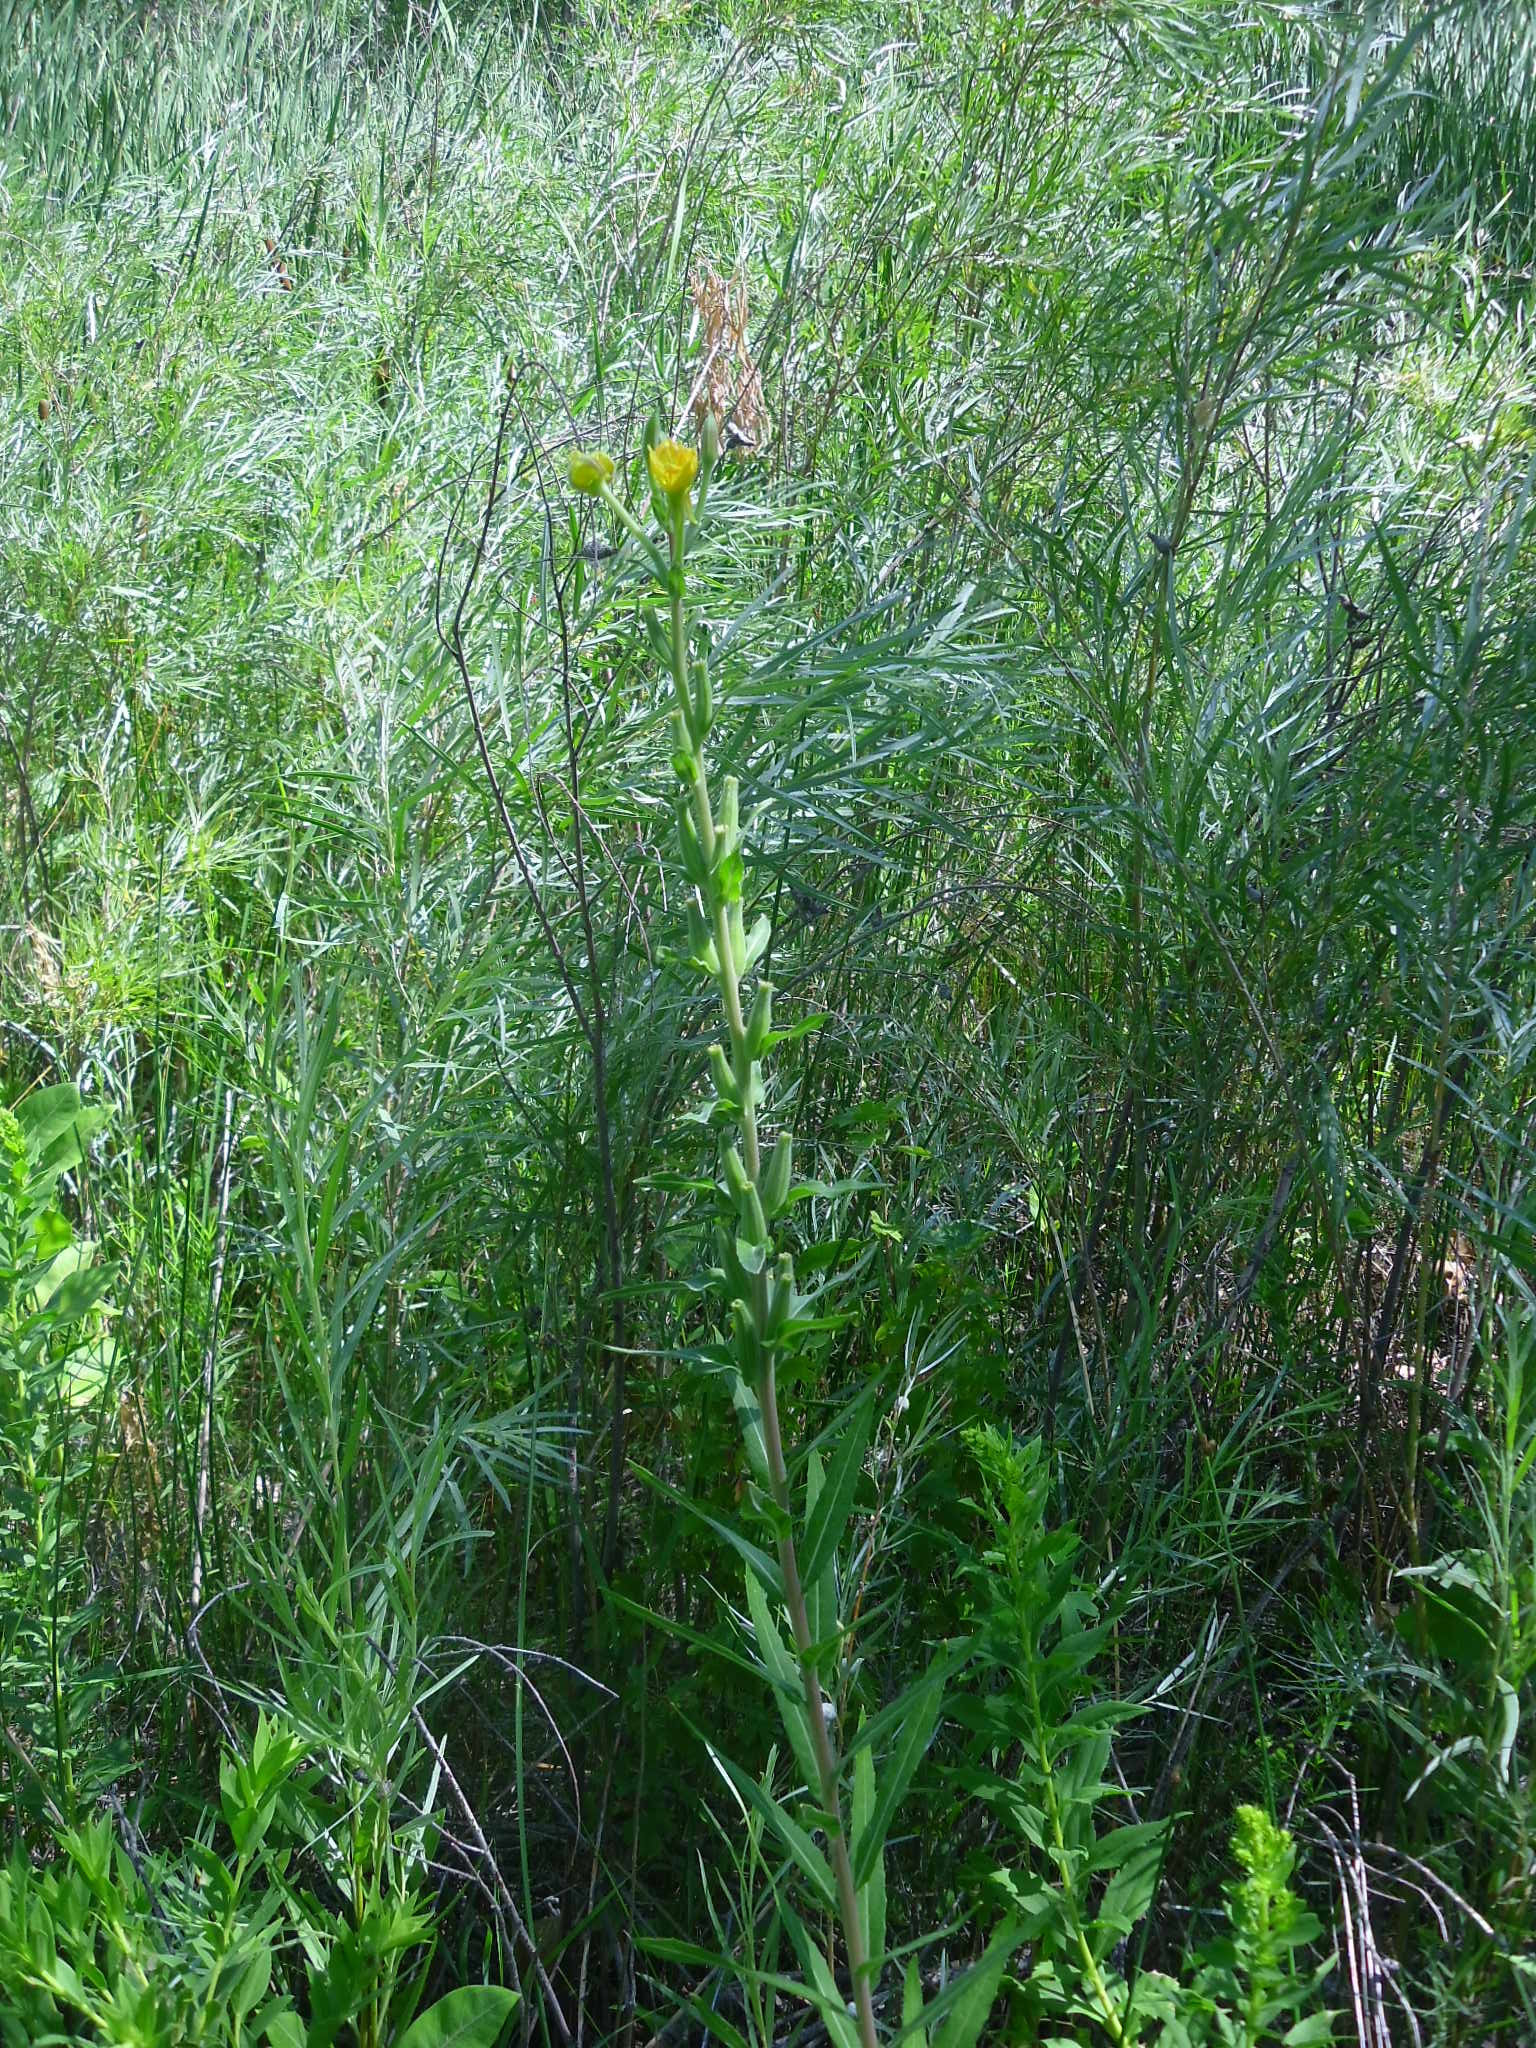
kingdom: Plantae
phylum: Tracheophyta
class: Magnoliopsida
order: Myrtales
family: Onagraceae
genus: Oenothera
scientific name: Oenothera biennis
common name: Common evening-primrose
